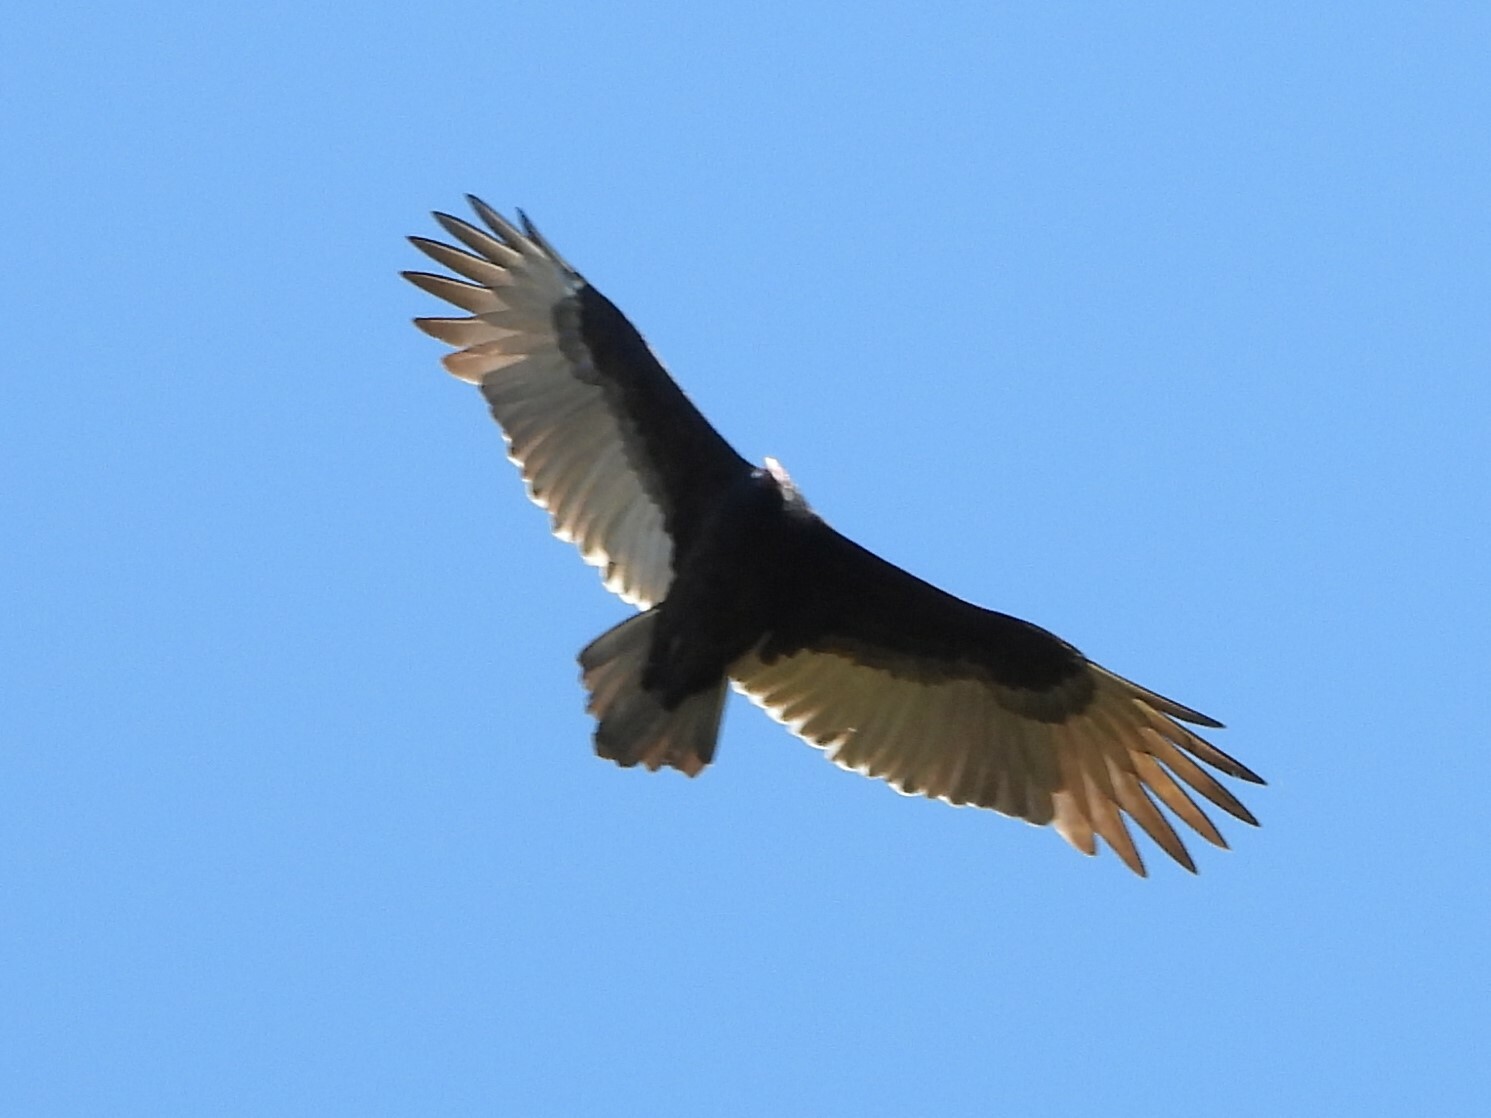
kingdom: Animalia
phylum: Chordata
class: Aves
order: Accipitriformes
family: Cathartidae
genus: Cathartes
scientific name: Cathartes aura
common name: Turkey vulture
